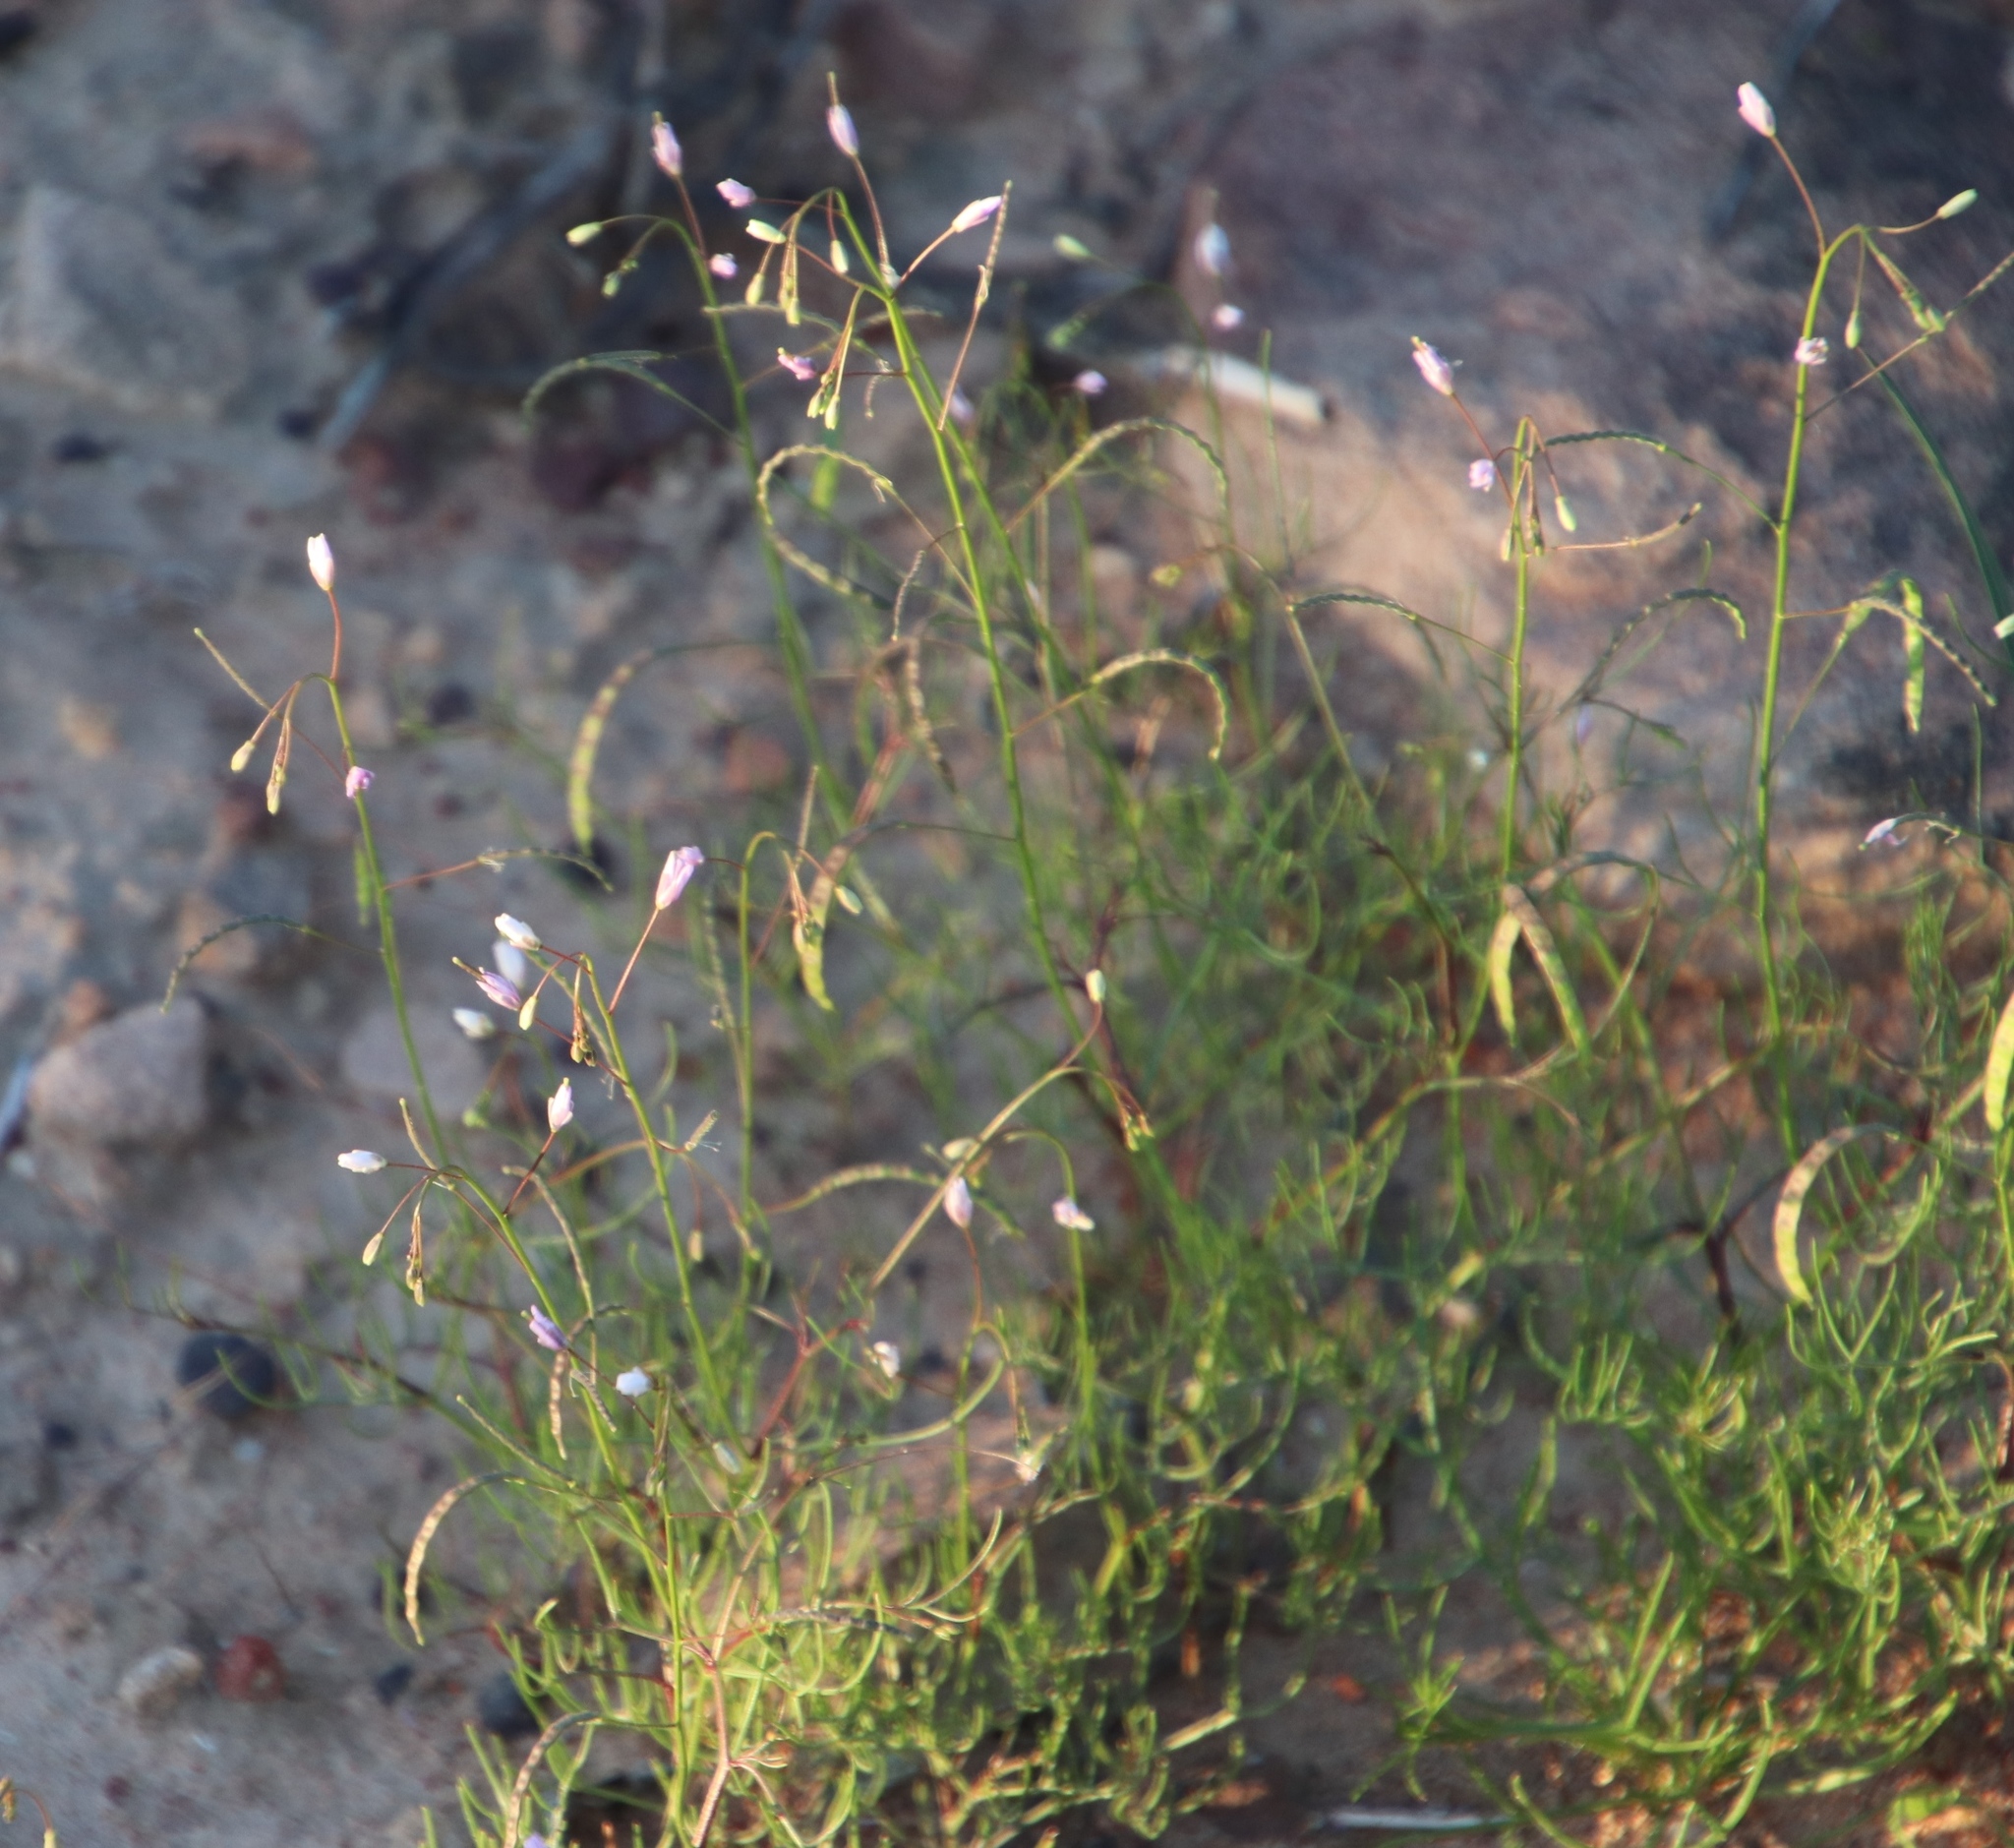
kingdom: Plantae
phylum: Tracheophyta
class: Magnoliopsida
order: Brassicales
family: Brassicaceae
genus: Heliophila
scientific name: Heliophila variabilis
